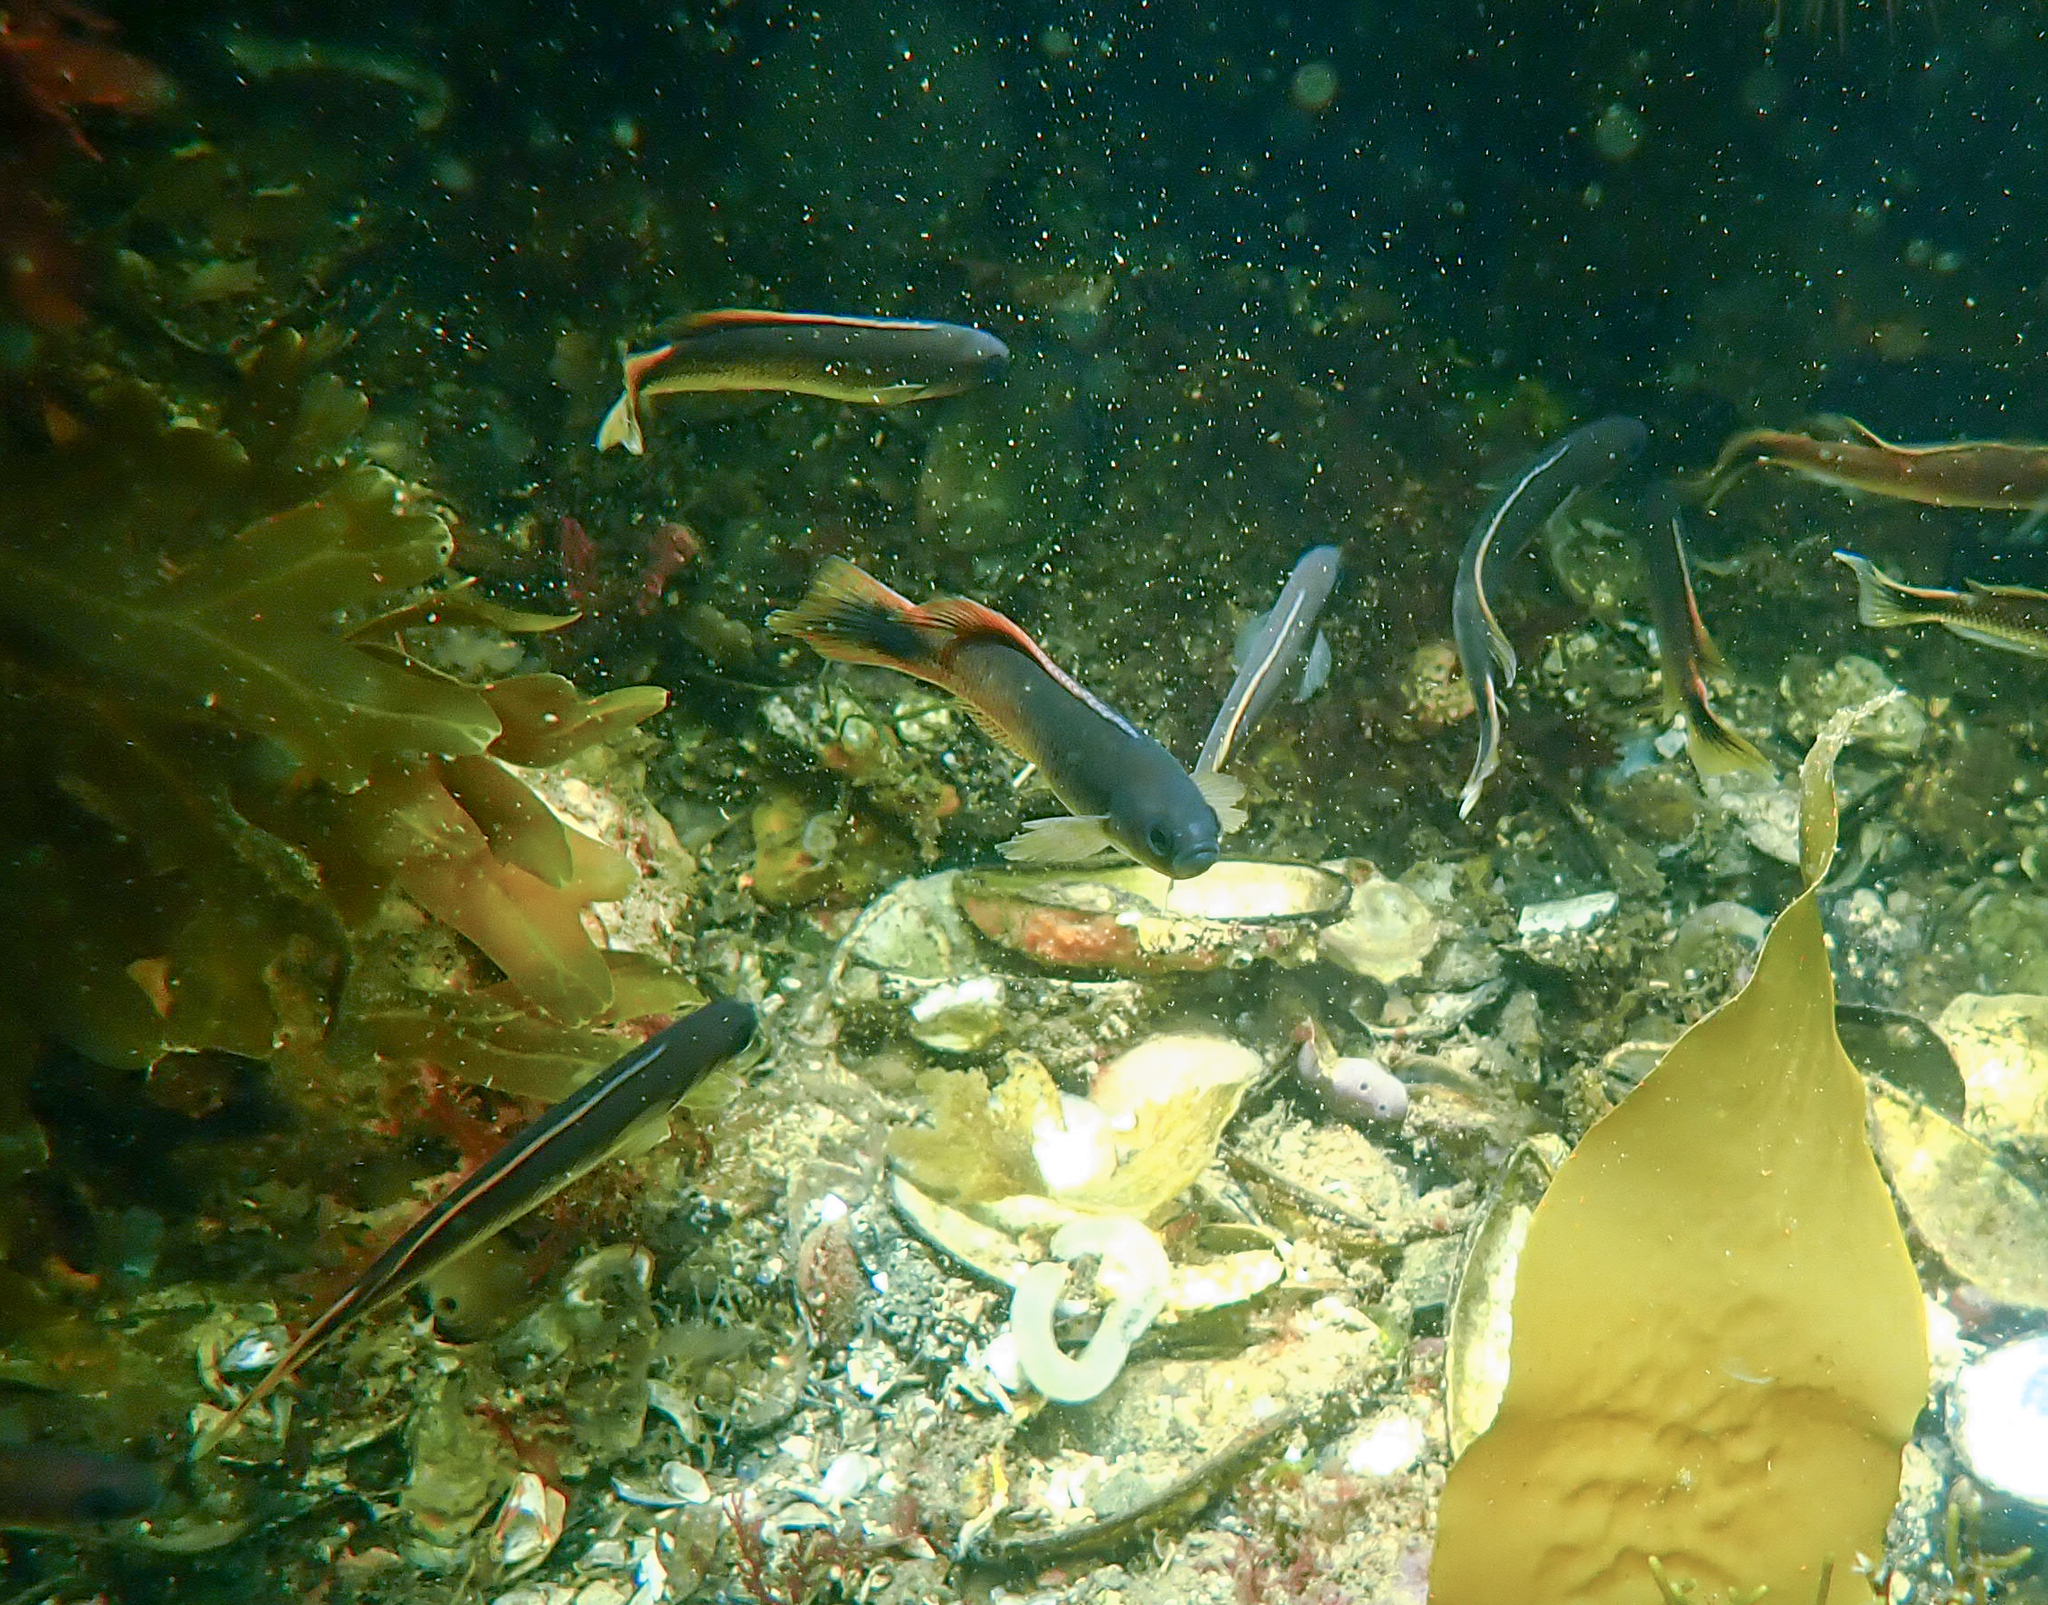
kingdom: Animalia
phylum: Chordata
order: Perciformes
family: Plesiopidae
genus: Trachinops
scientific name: Trachinops caudimaculatus
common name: Blotched-tailed trachinops
